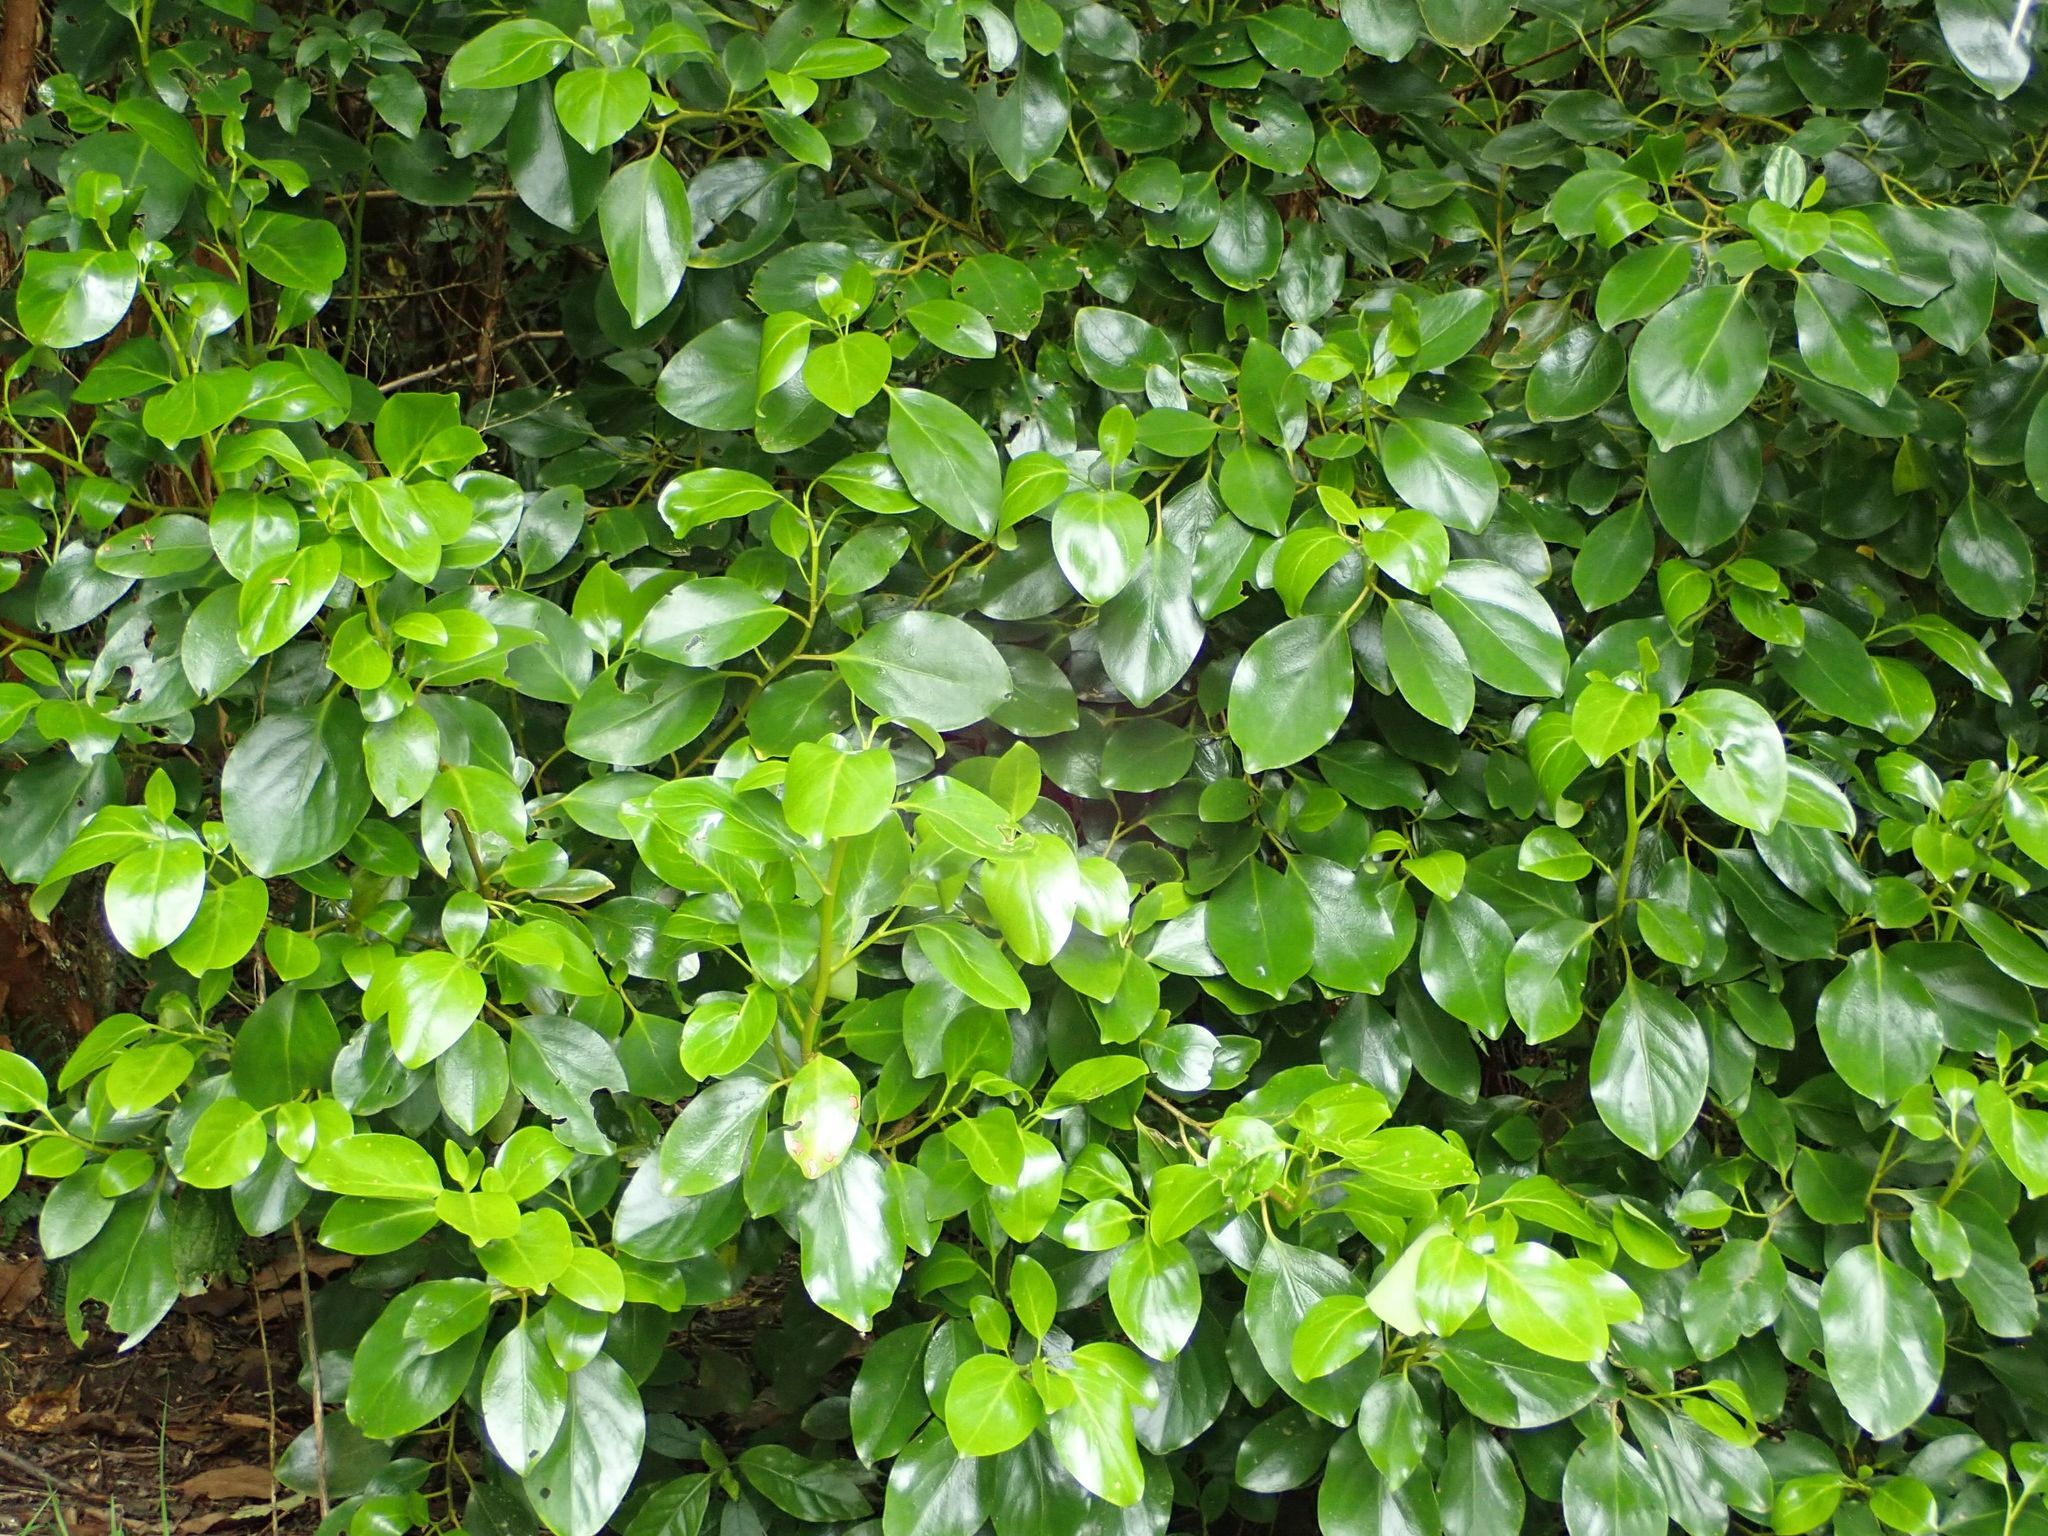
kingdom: Plantae
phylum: Tracheophyta
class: Magnoliopsida
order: Apiales
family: Griseliniaceae
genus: Griselinia
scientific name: Griselinia littoralis
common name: New zealand broadleaf
